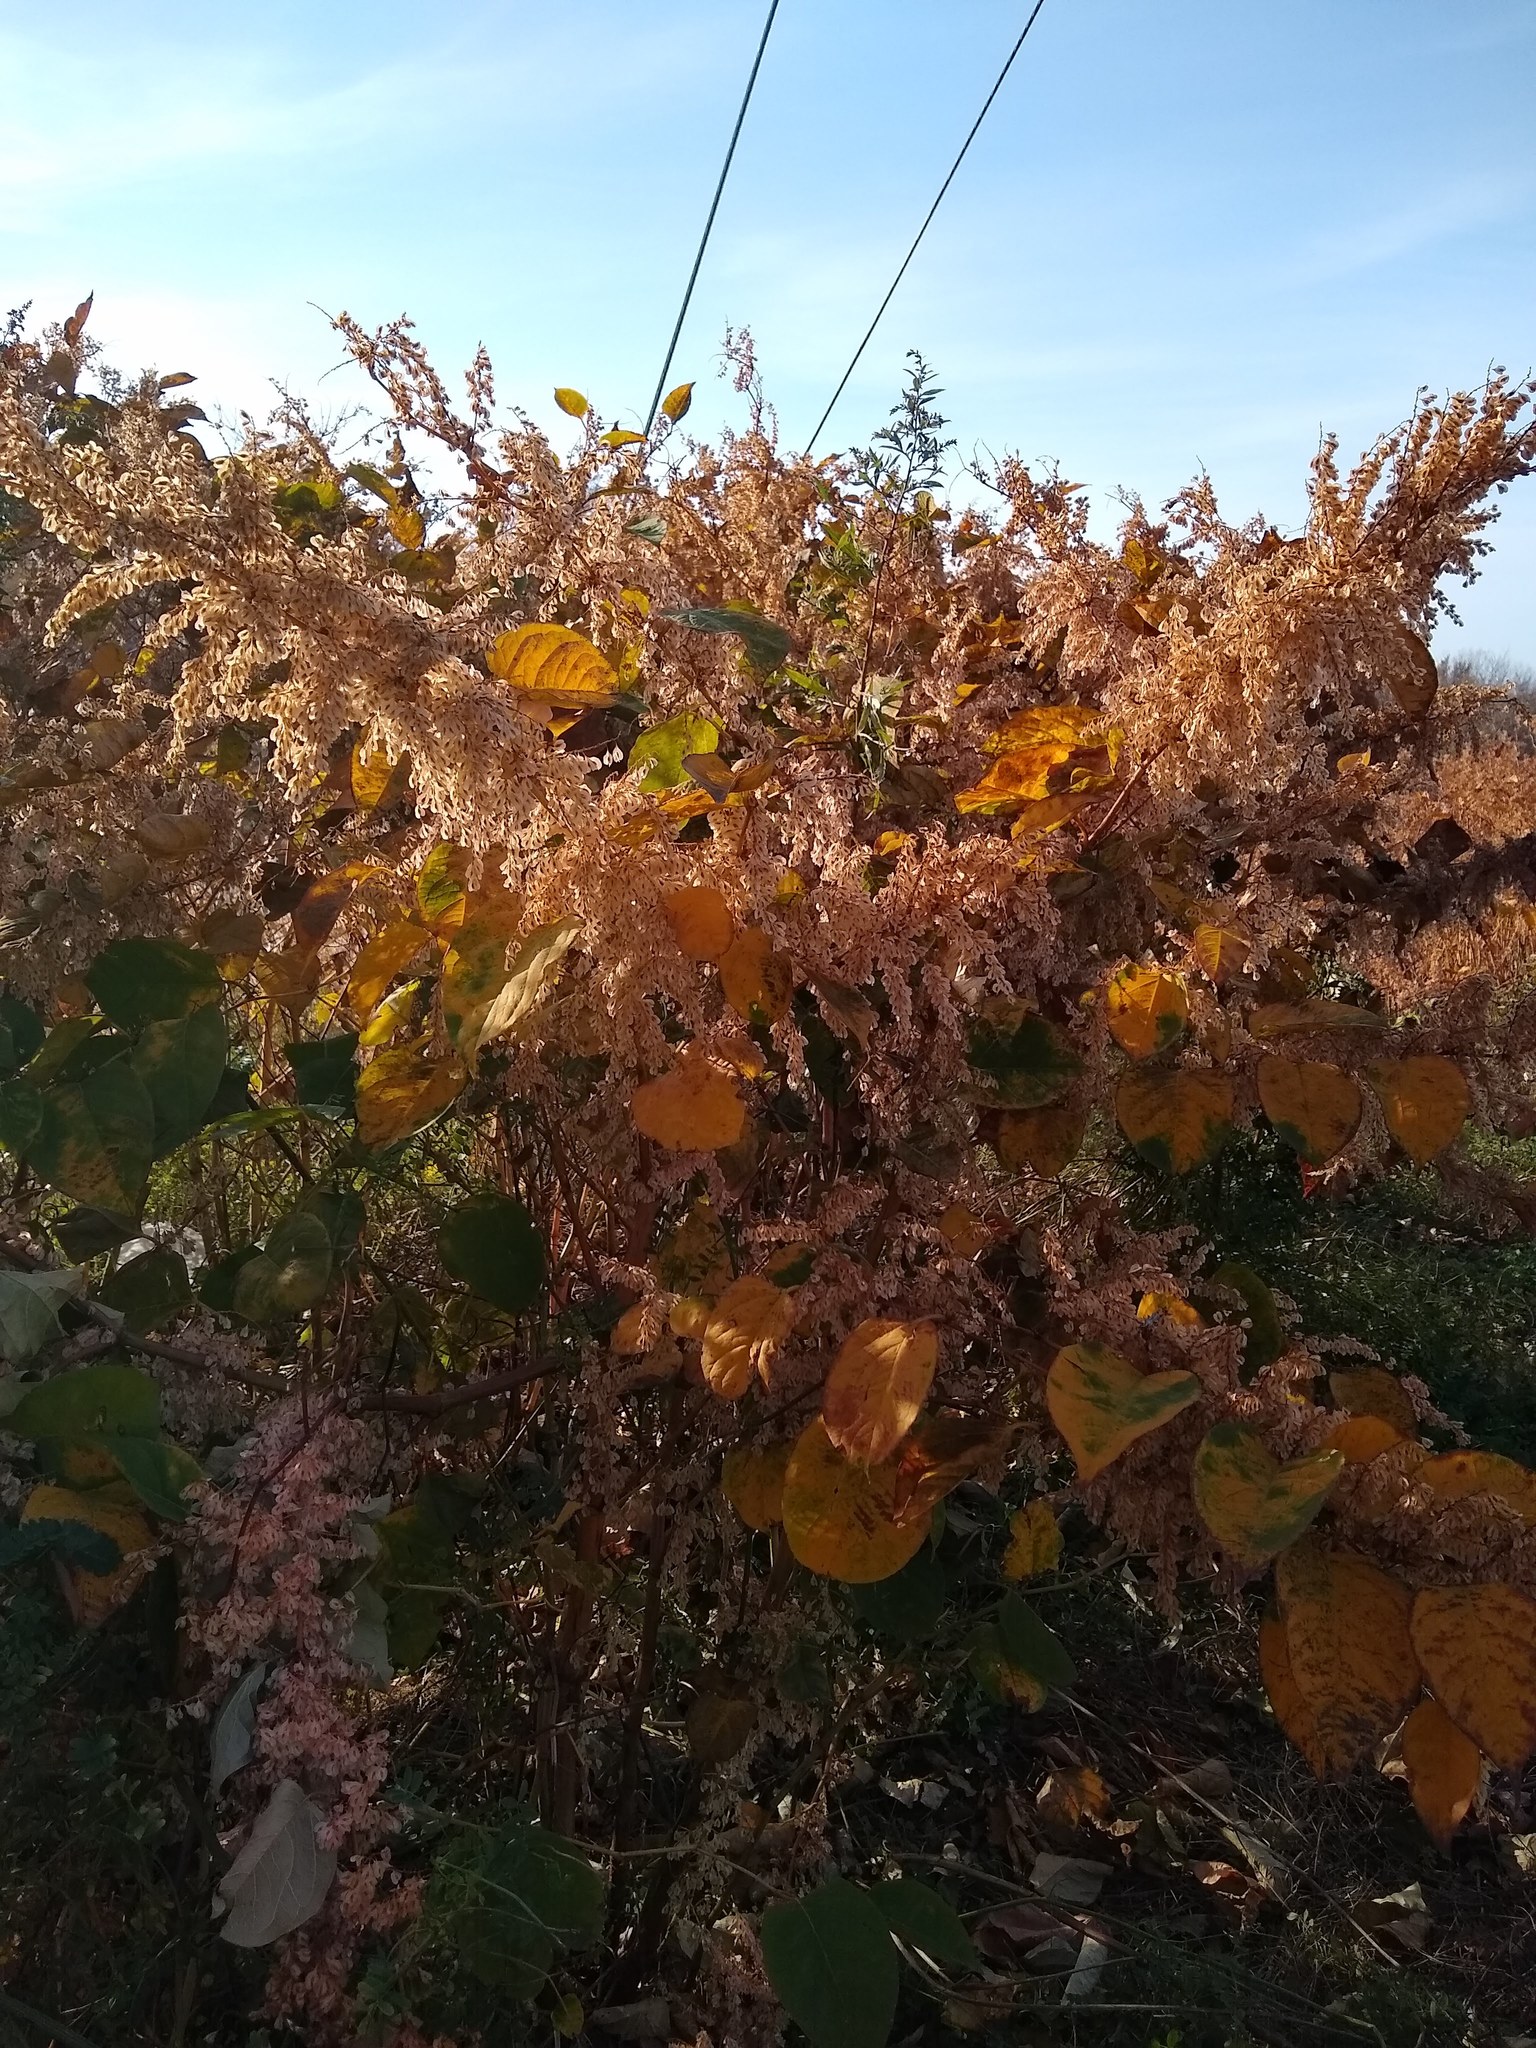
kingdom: Plantae
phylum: Tracheophyta
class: Magnoliopsida
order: Caryophyllales
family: Polygonaceae
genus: Reynoutria
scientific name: Reynoutria japonica
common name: Japanese knotweed
